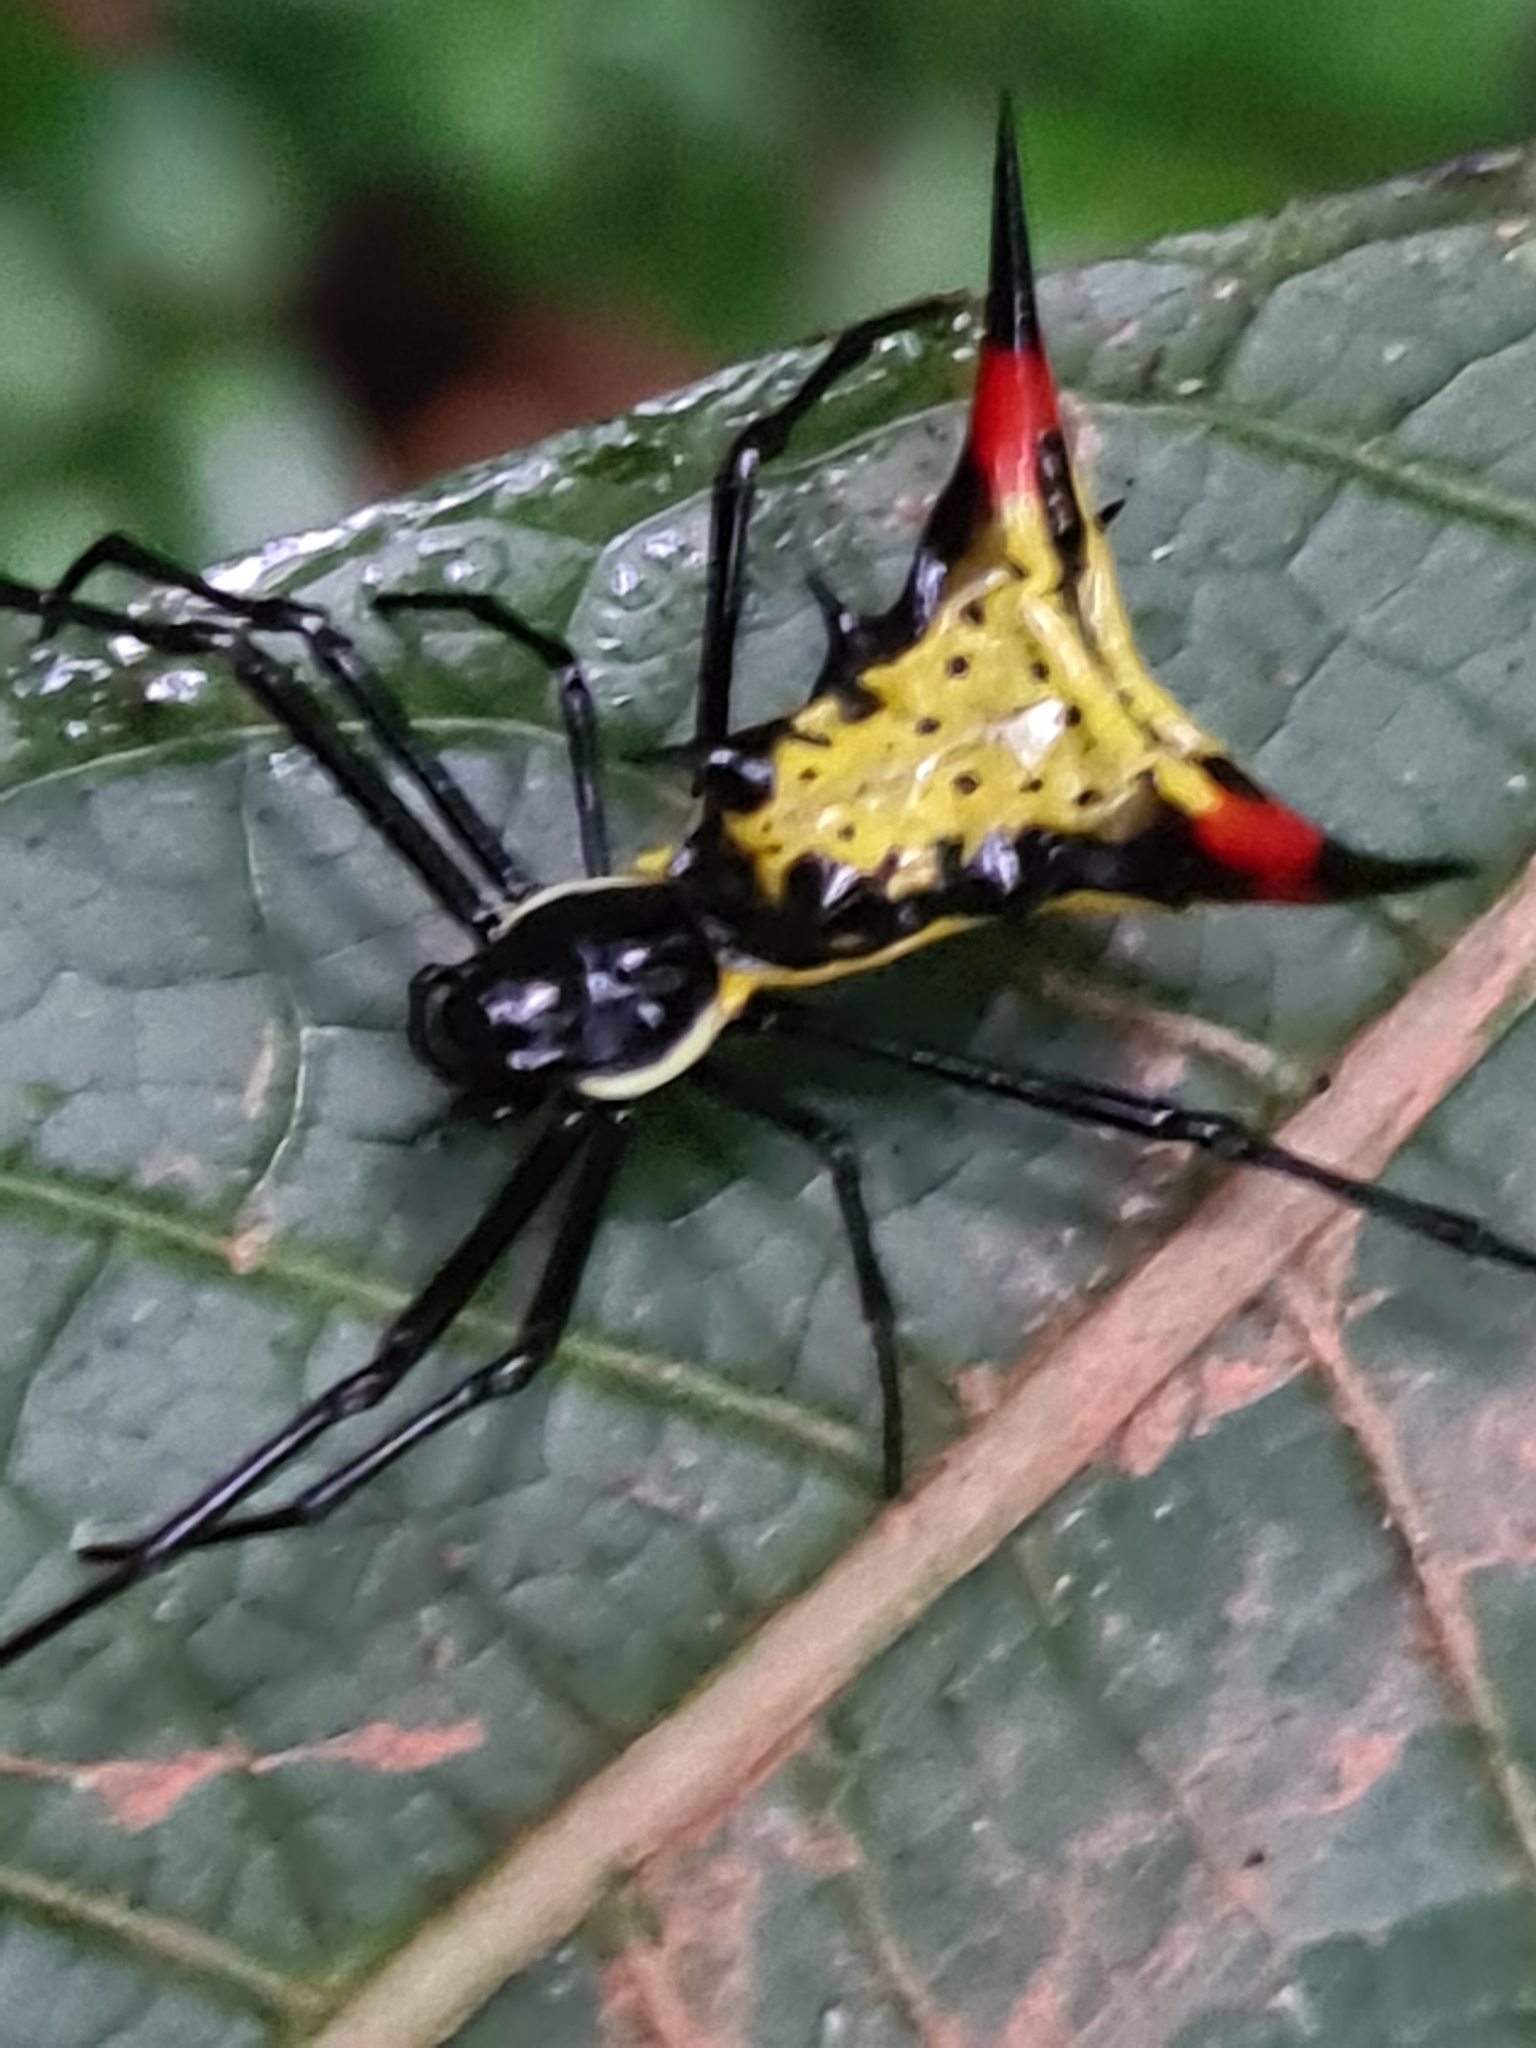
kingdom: Animalia
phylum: Arthropoda
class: Arachnida
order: Araneae
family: Araneidae
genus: Micrathena
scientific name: Micrathena schreibersi
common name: Orb weavers
